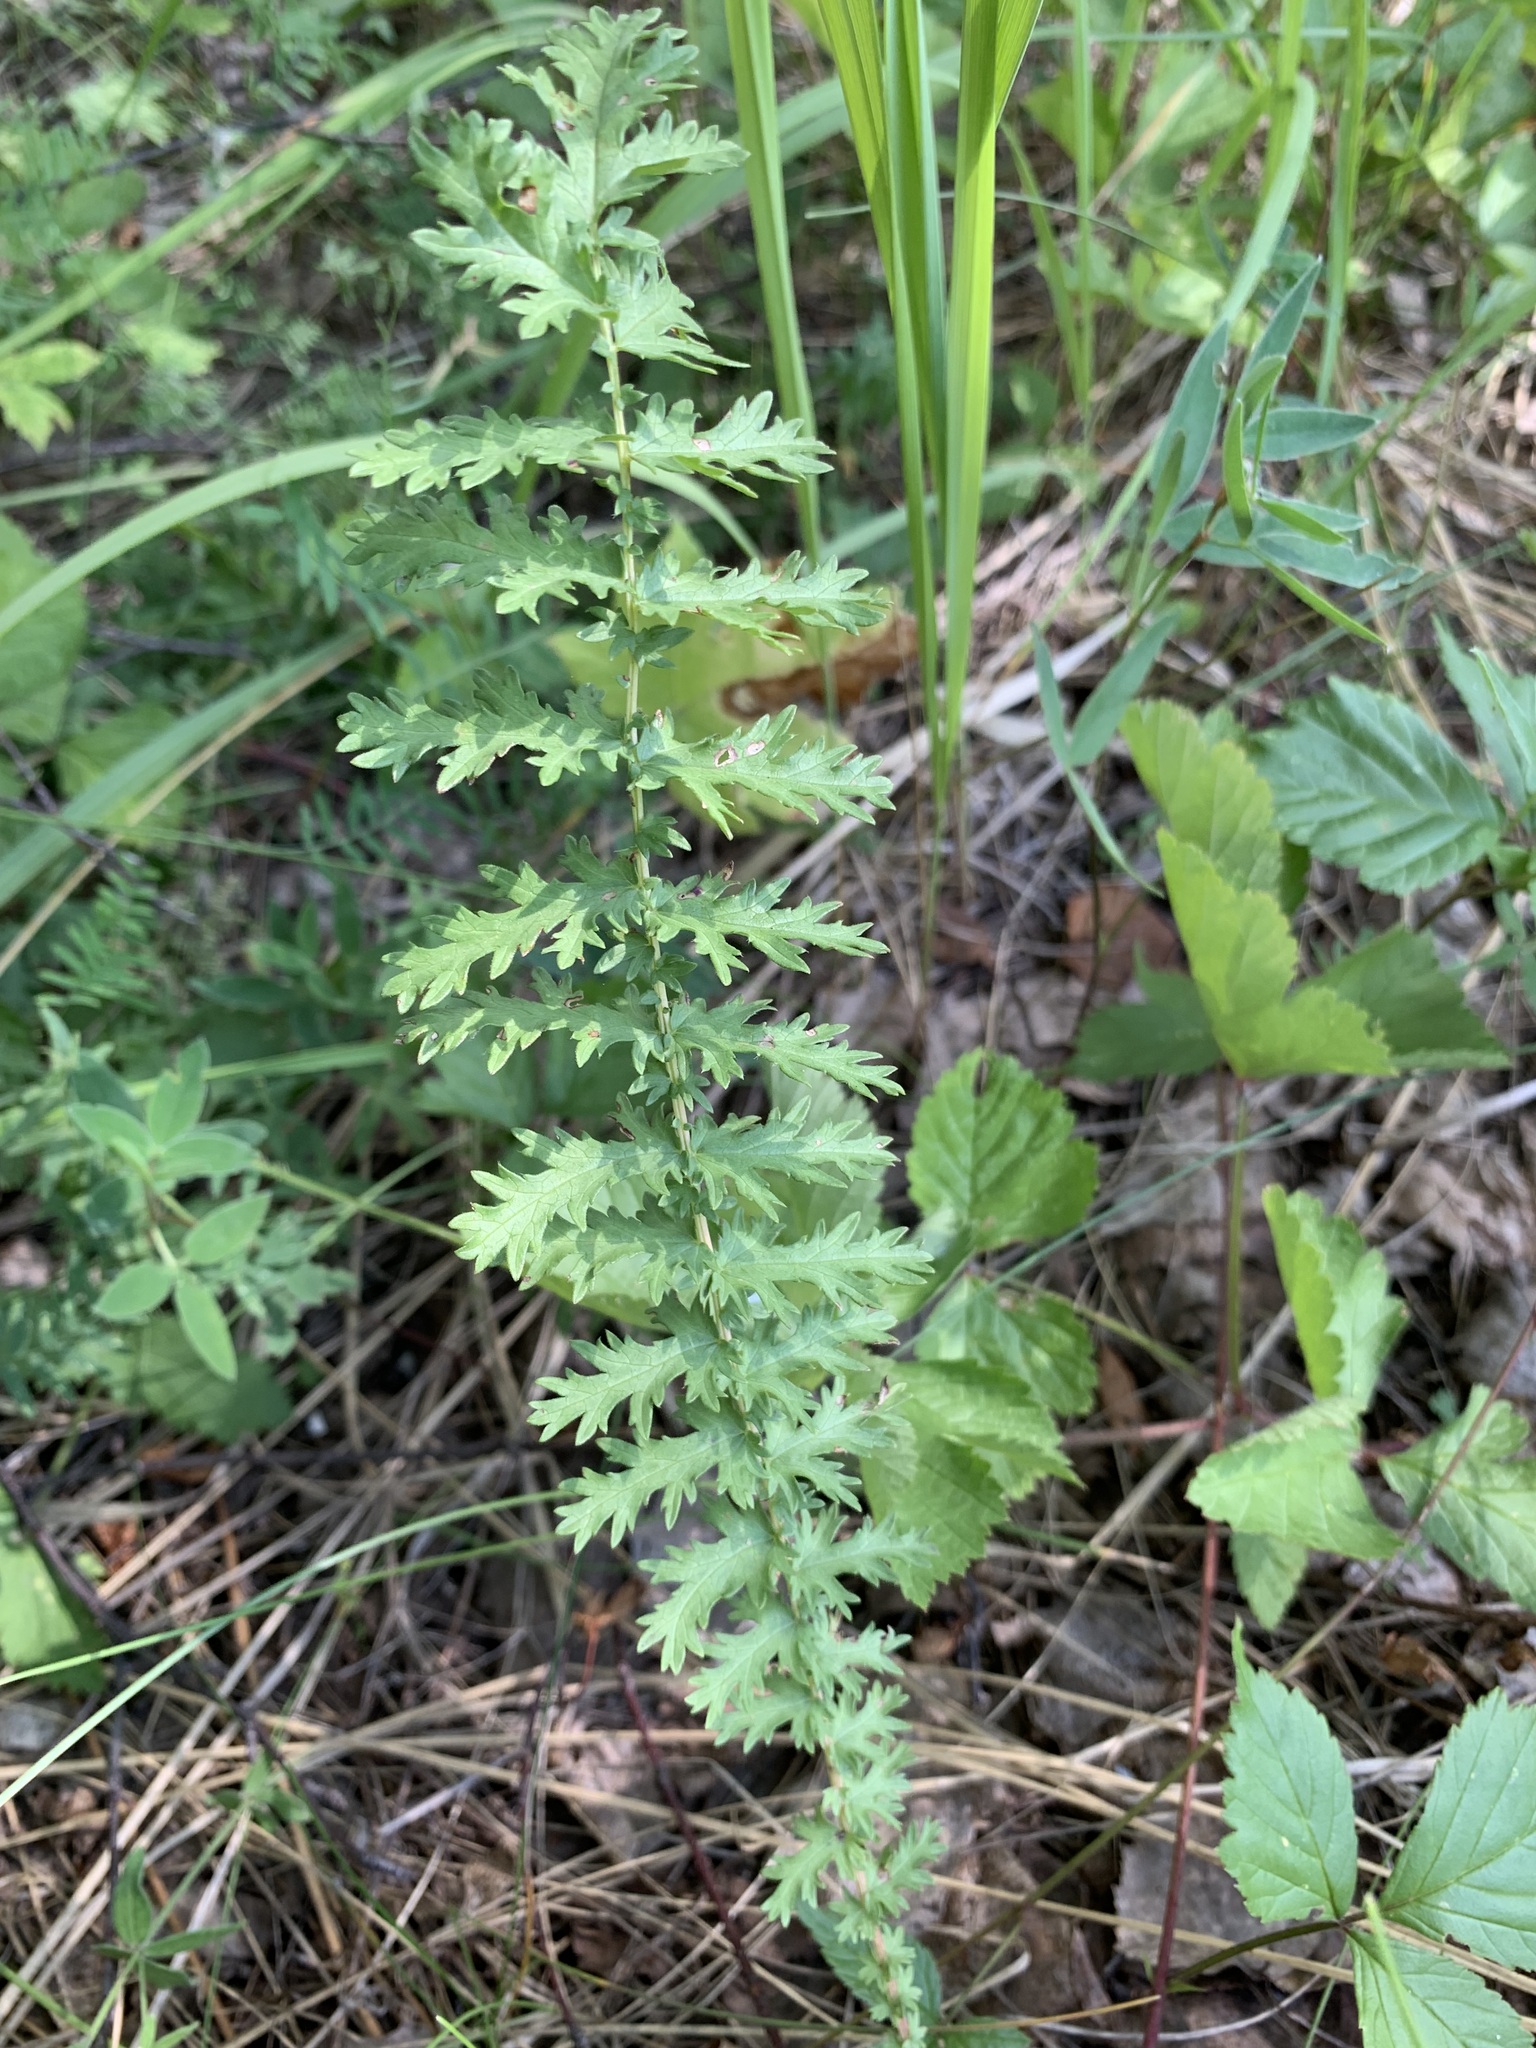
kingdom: Plantae
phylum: Tracheophyta
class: Magnoliopsida
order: Rosales
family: Rosaceae
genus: Filipendula
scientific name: Filipendula vulgaris
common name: Dropwort
